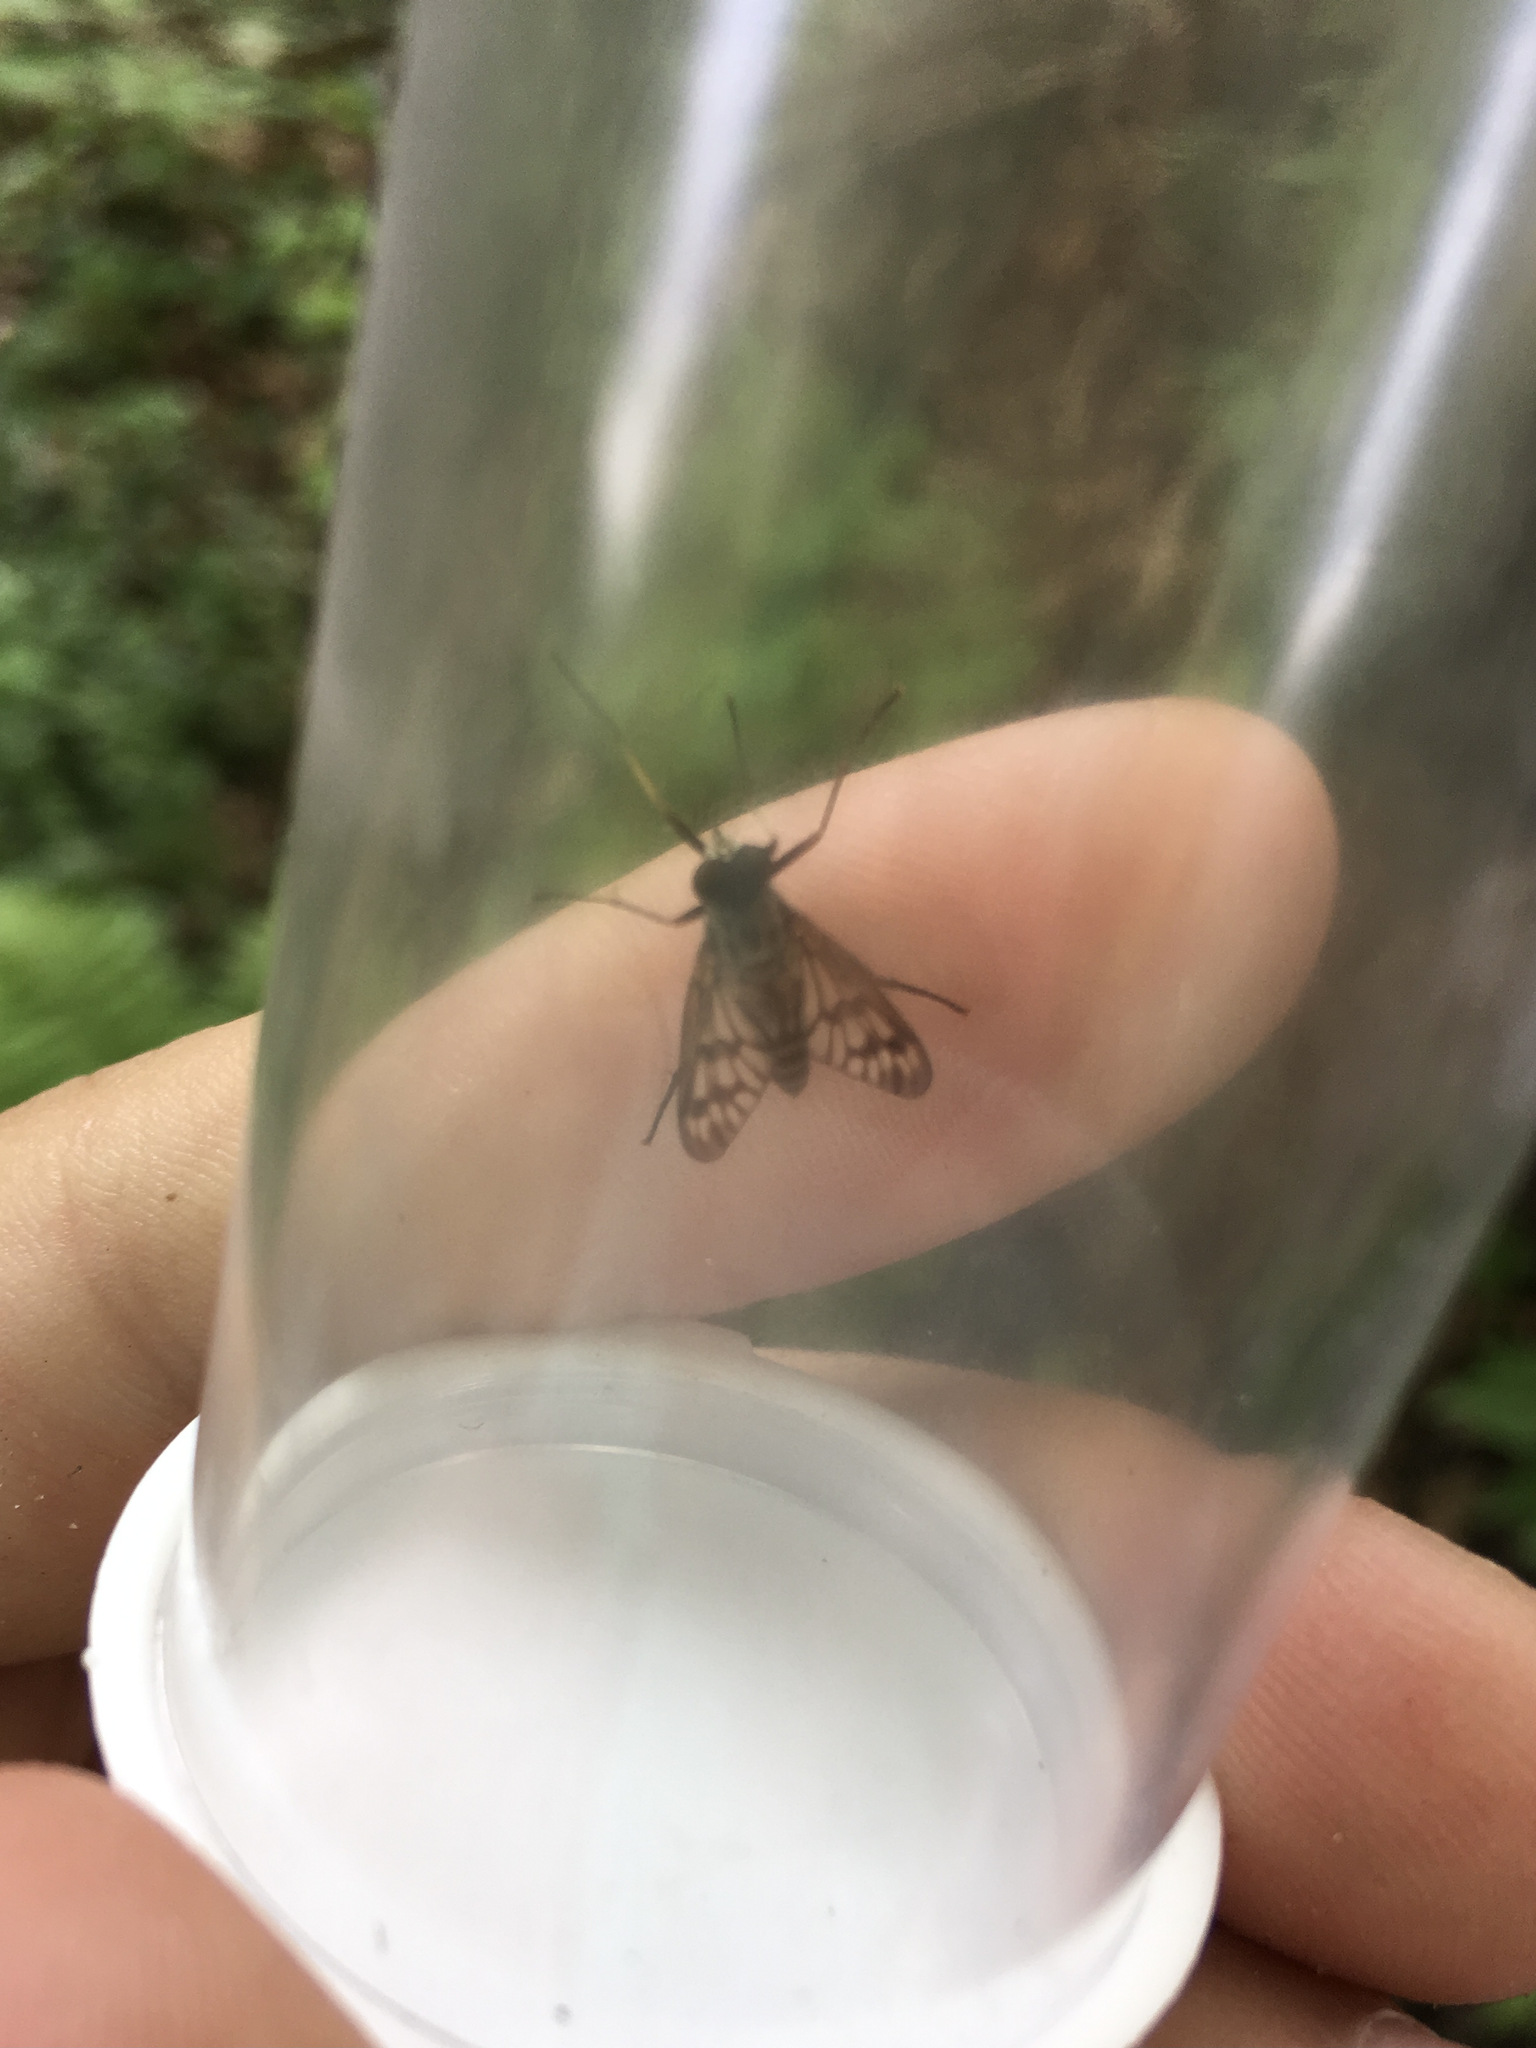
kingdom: Animalia
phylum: Arthropoda
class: Insecta
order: Diptera
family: Rhagionidae
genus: Rhagio
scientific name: Rhagio mystaceus
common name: Common snipe fly
